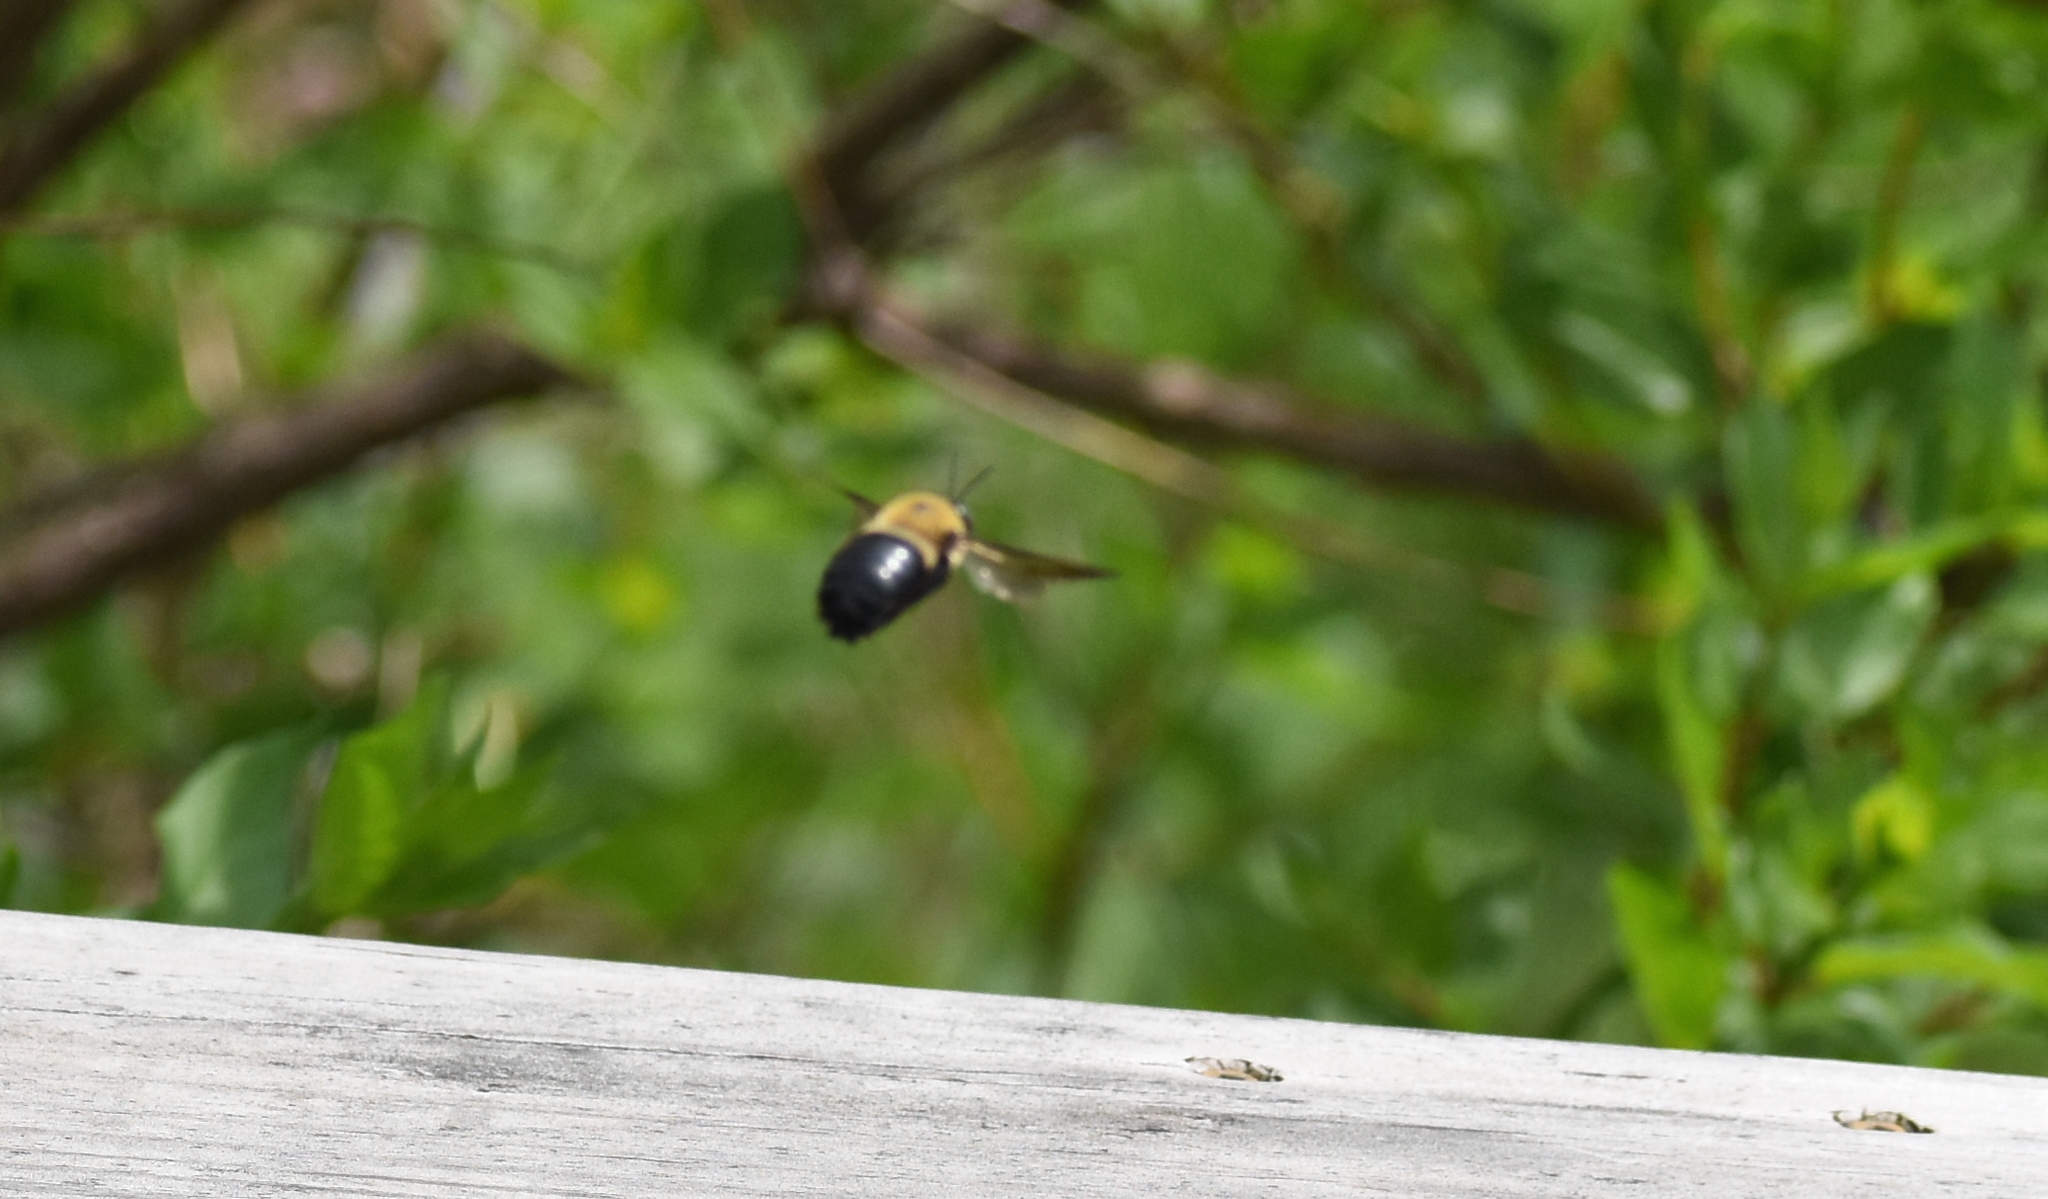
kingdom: Animalia
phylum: Arthropoda
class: Insecta
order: Hymenoptera
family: Apidae
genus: Xylocopa
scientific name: Xylocopa virginica
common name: Carpenter bee
